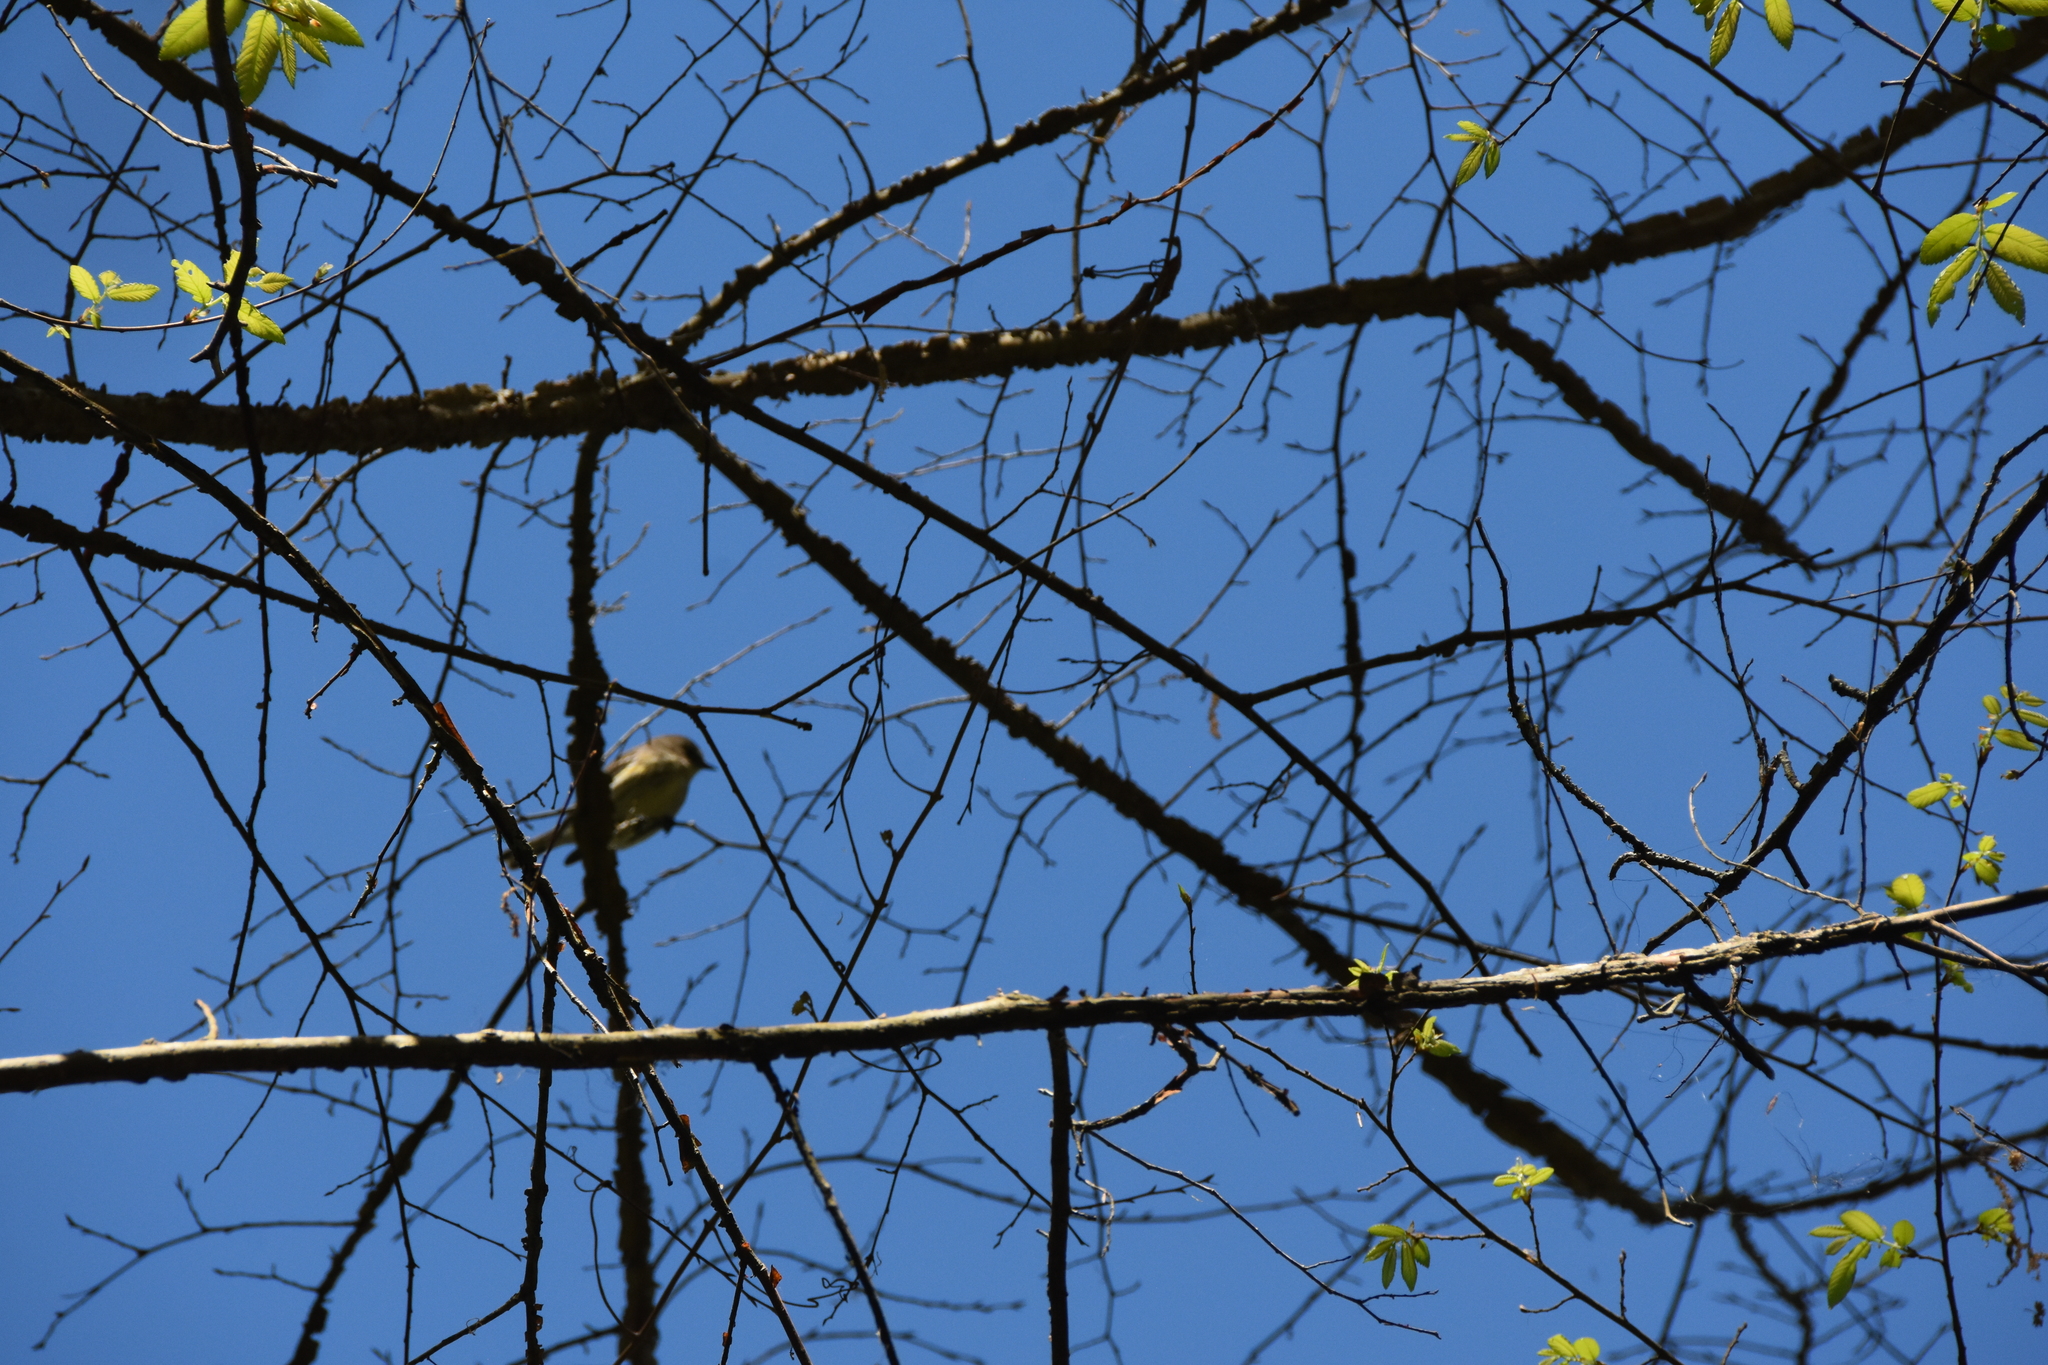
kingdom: Animalia
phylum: Chordata
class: Aves
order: Passeriformes
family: Parulidae
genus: Setophaga
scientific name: Setophaga coronata
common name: Myrtle warbler
